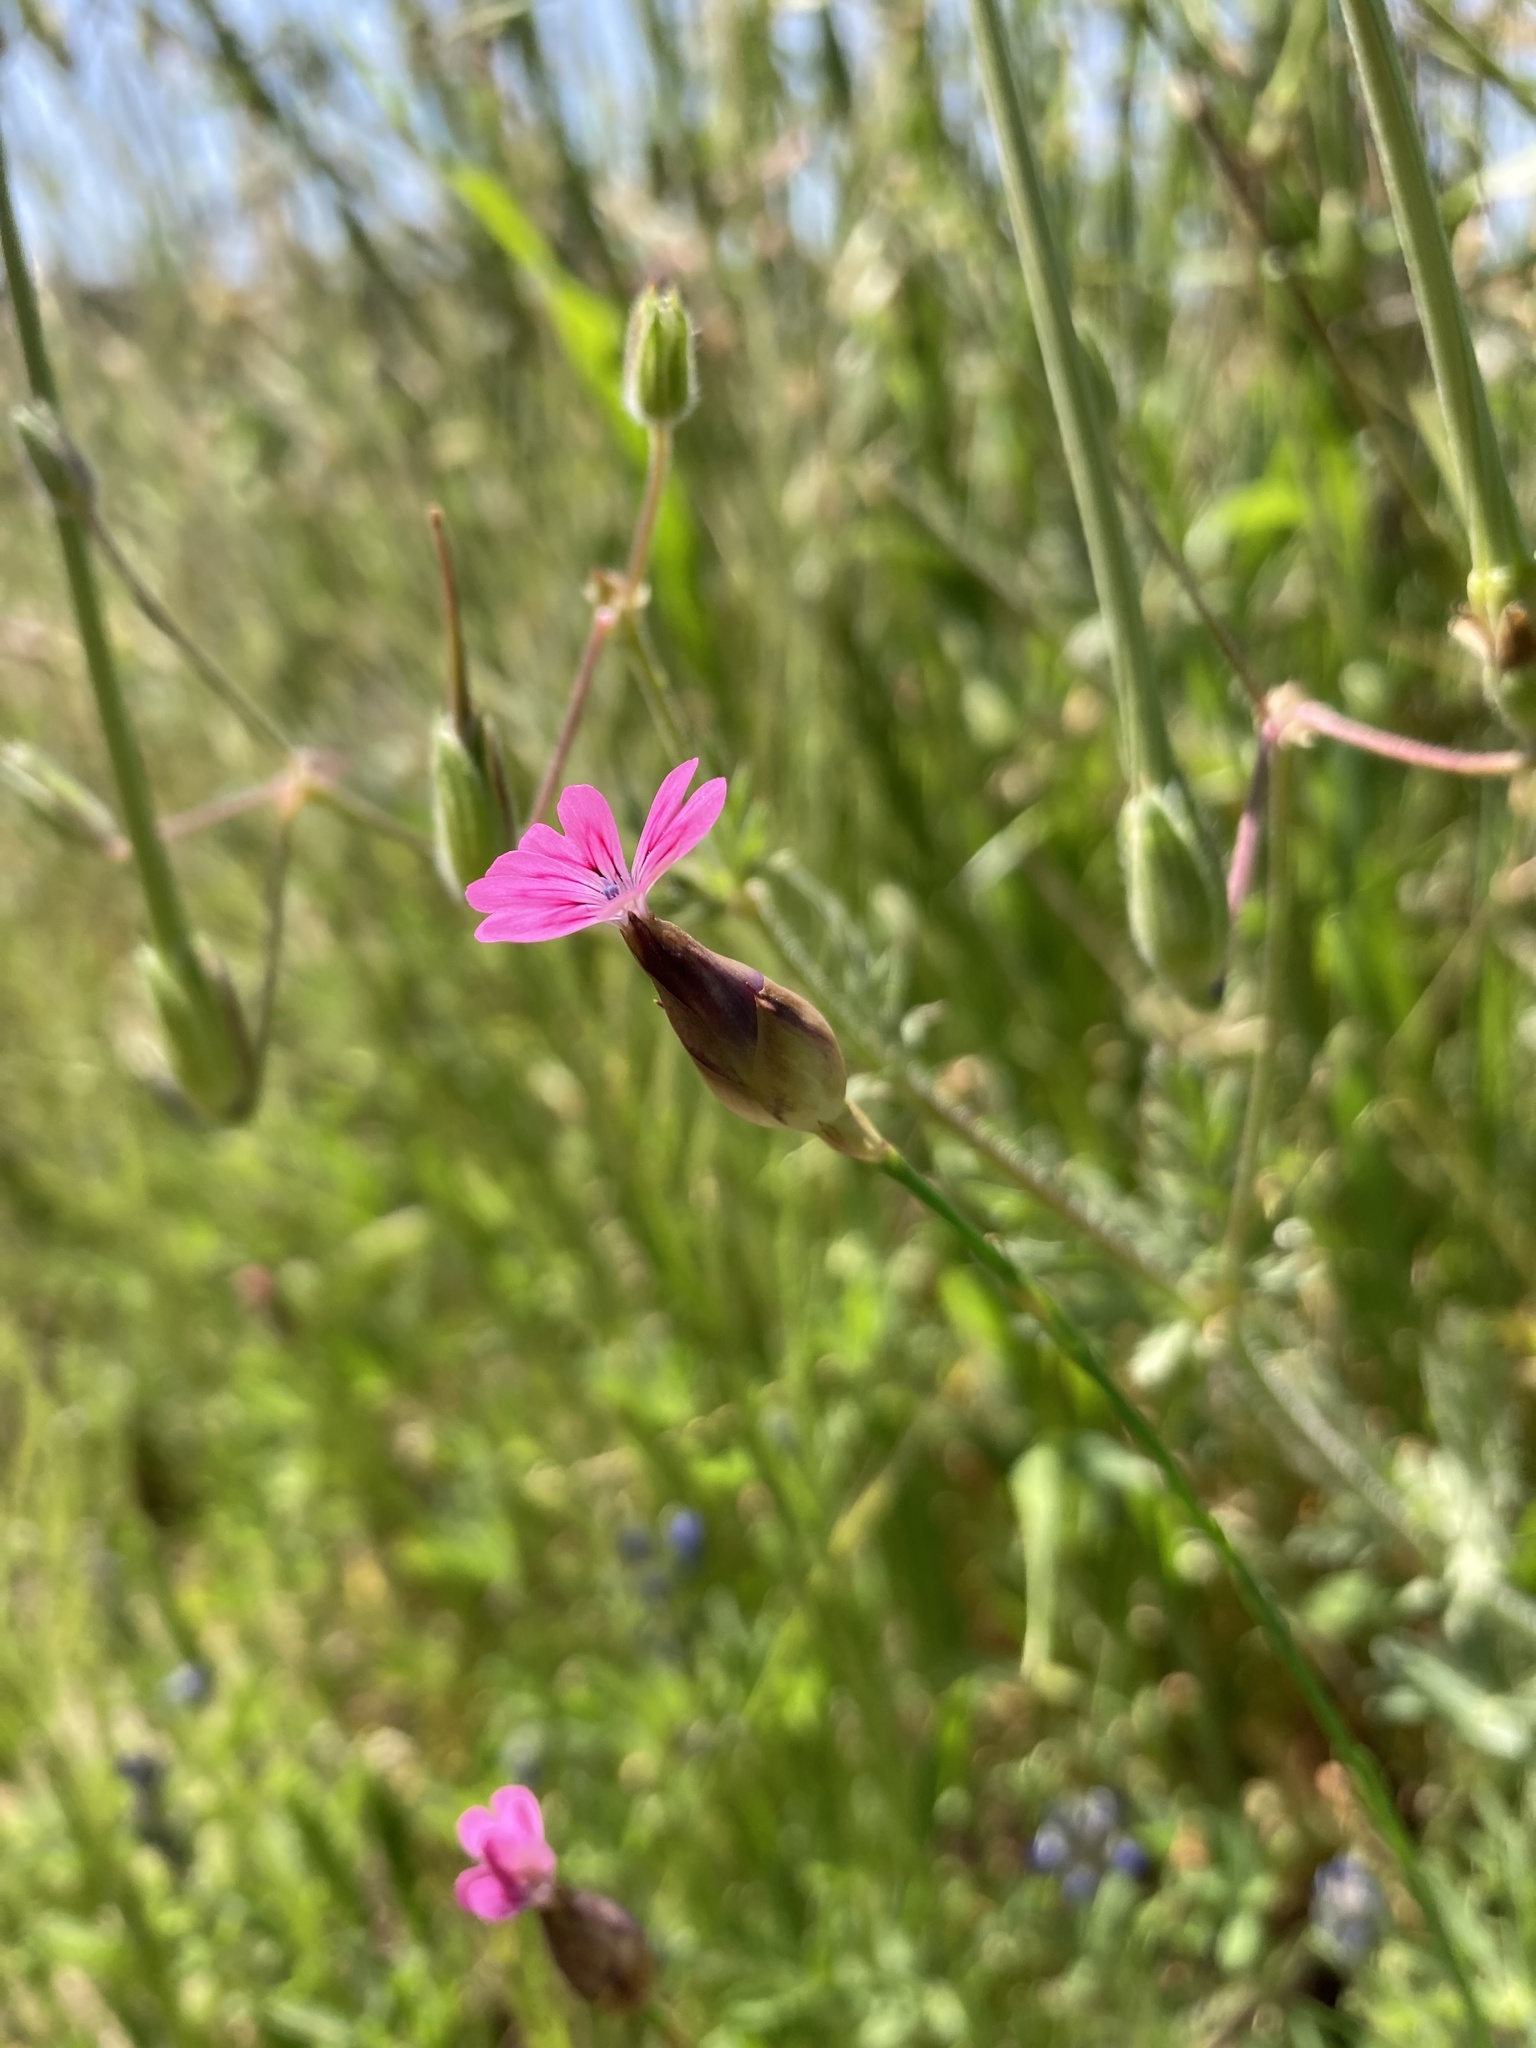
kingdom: Plantae
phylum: Tracheophyta
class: Magnoliopsida
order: Caryophyllales
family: Caryophyllaceae
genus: Petrorhagia
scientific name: Petrorhagia nanteuilii
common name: Proliferous pink
